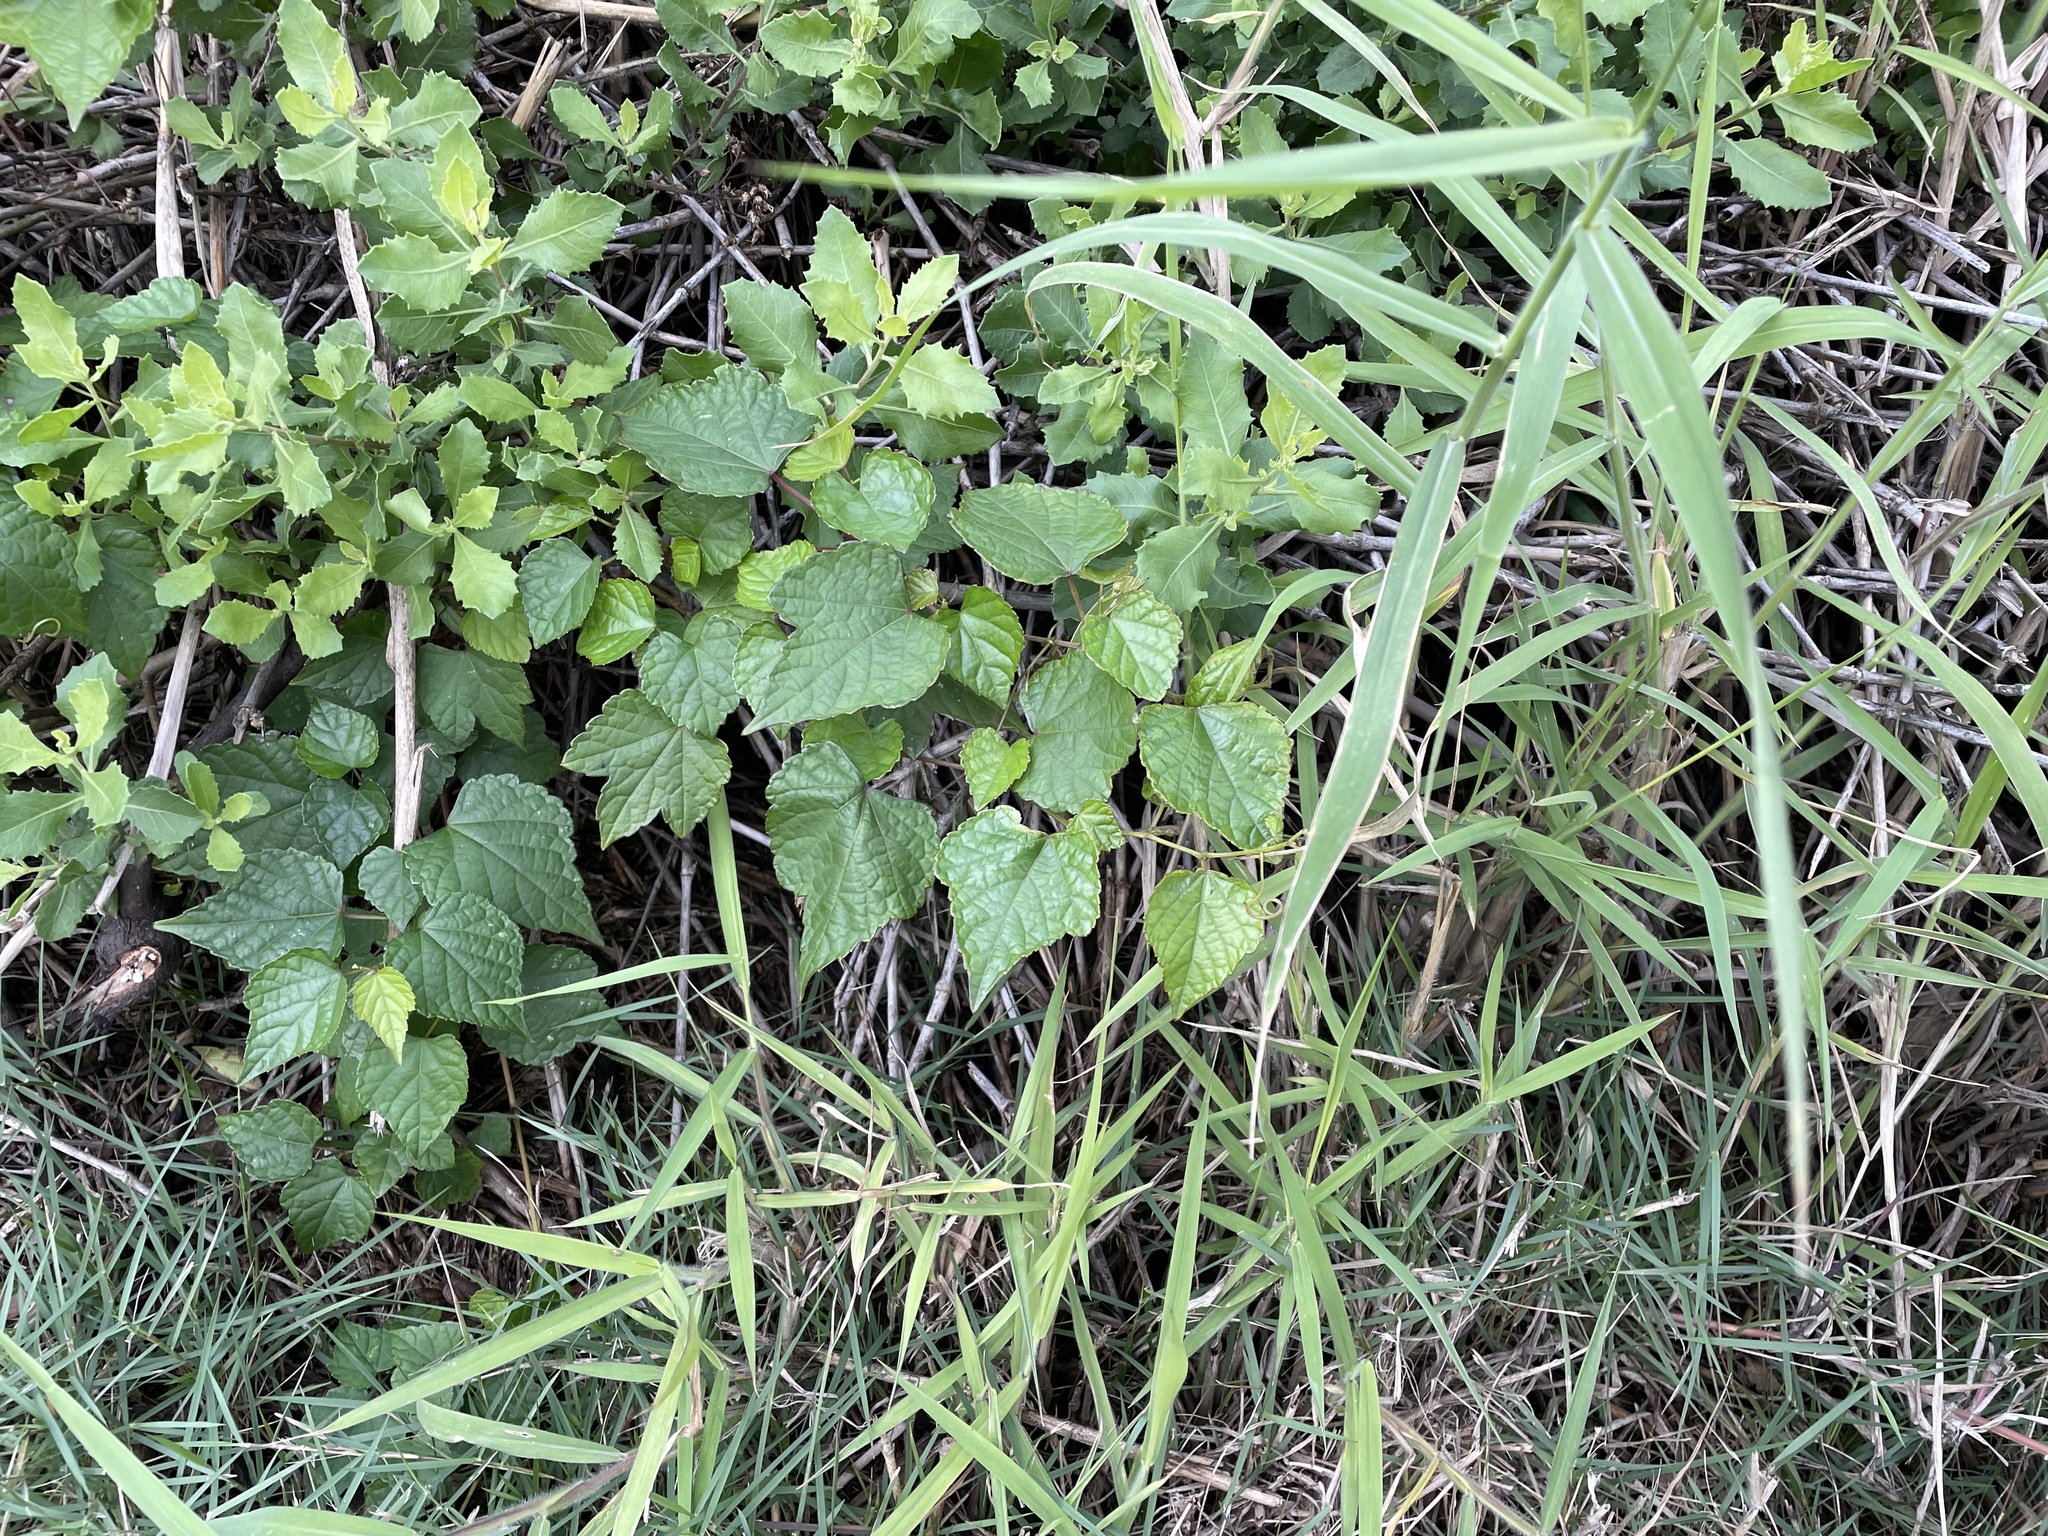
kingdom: Plantae
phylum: Tracheophyta
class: Magnoliopsida
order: Vitales
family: Vitaceae
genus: Ampelopsis
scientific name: Ampelopsis glandulosa
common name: Amur peppervine
